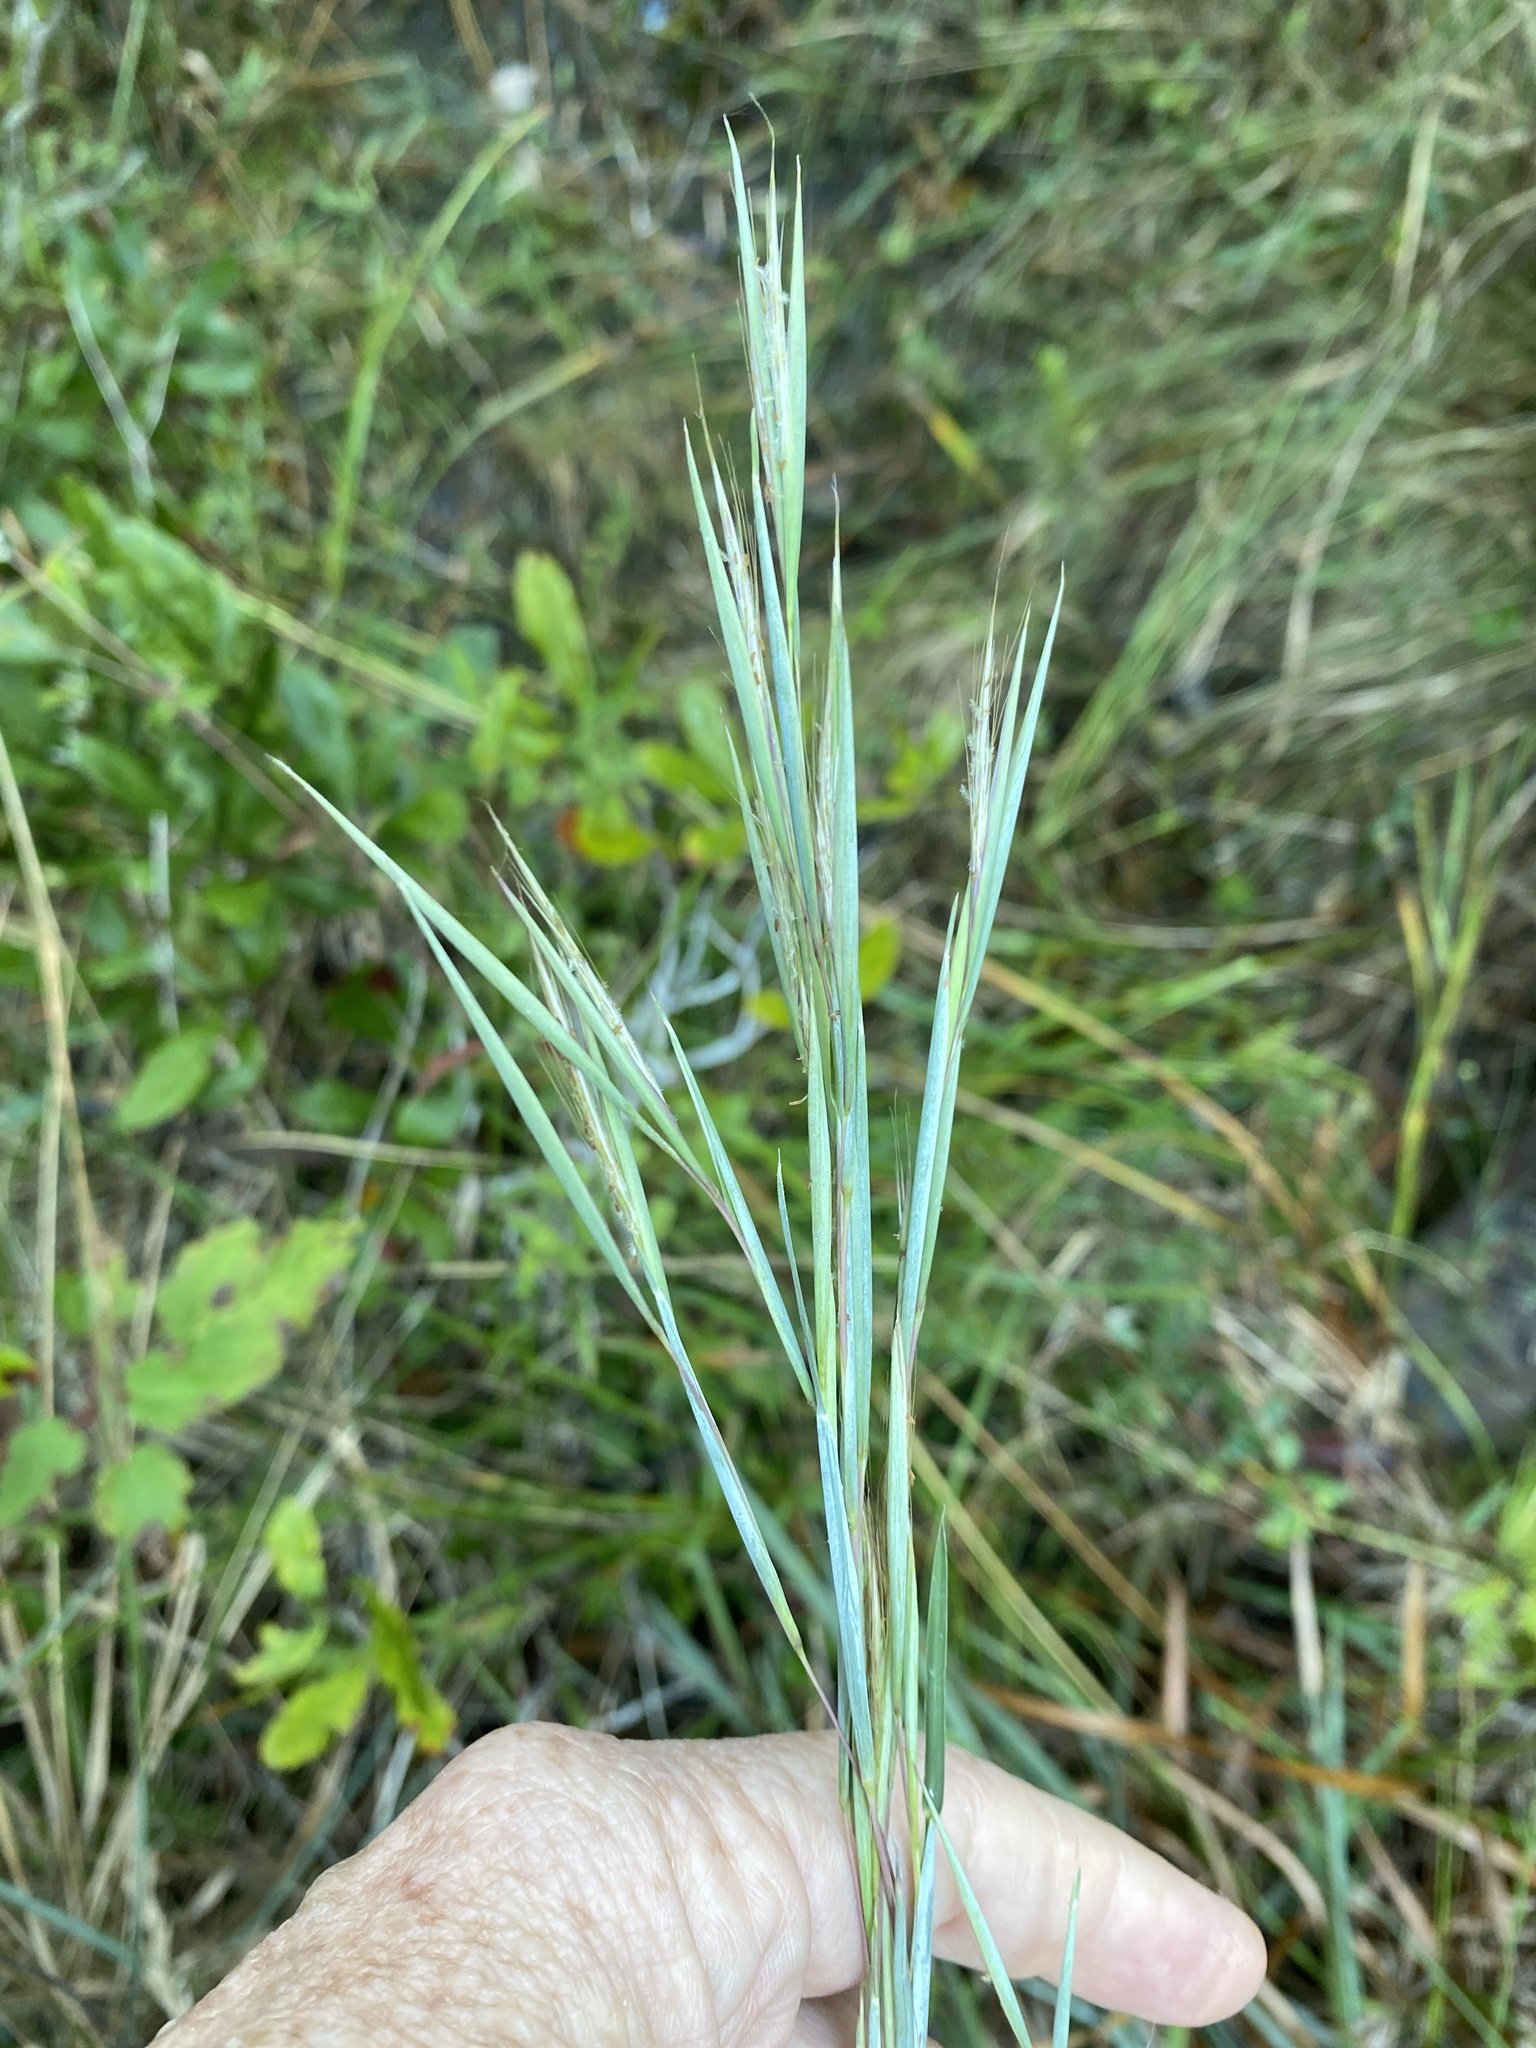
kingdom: Plantae
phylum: Tracheophyta
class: Liliopsida
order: Poales
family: Poaceae
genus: Andropogon
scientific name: Andropogon capillipes
